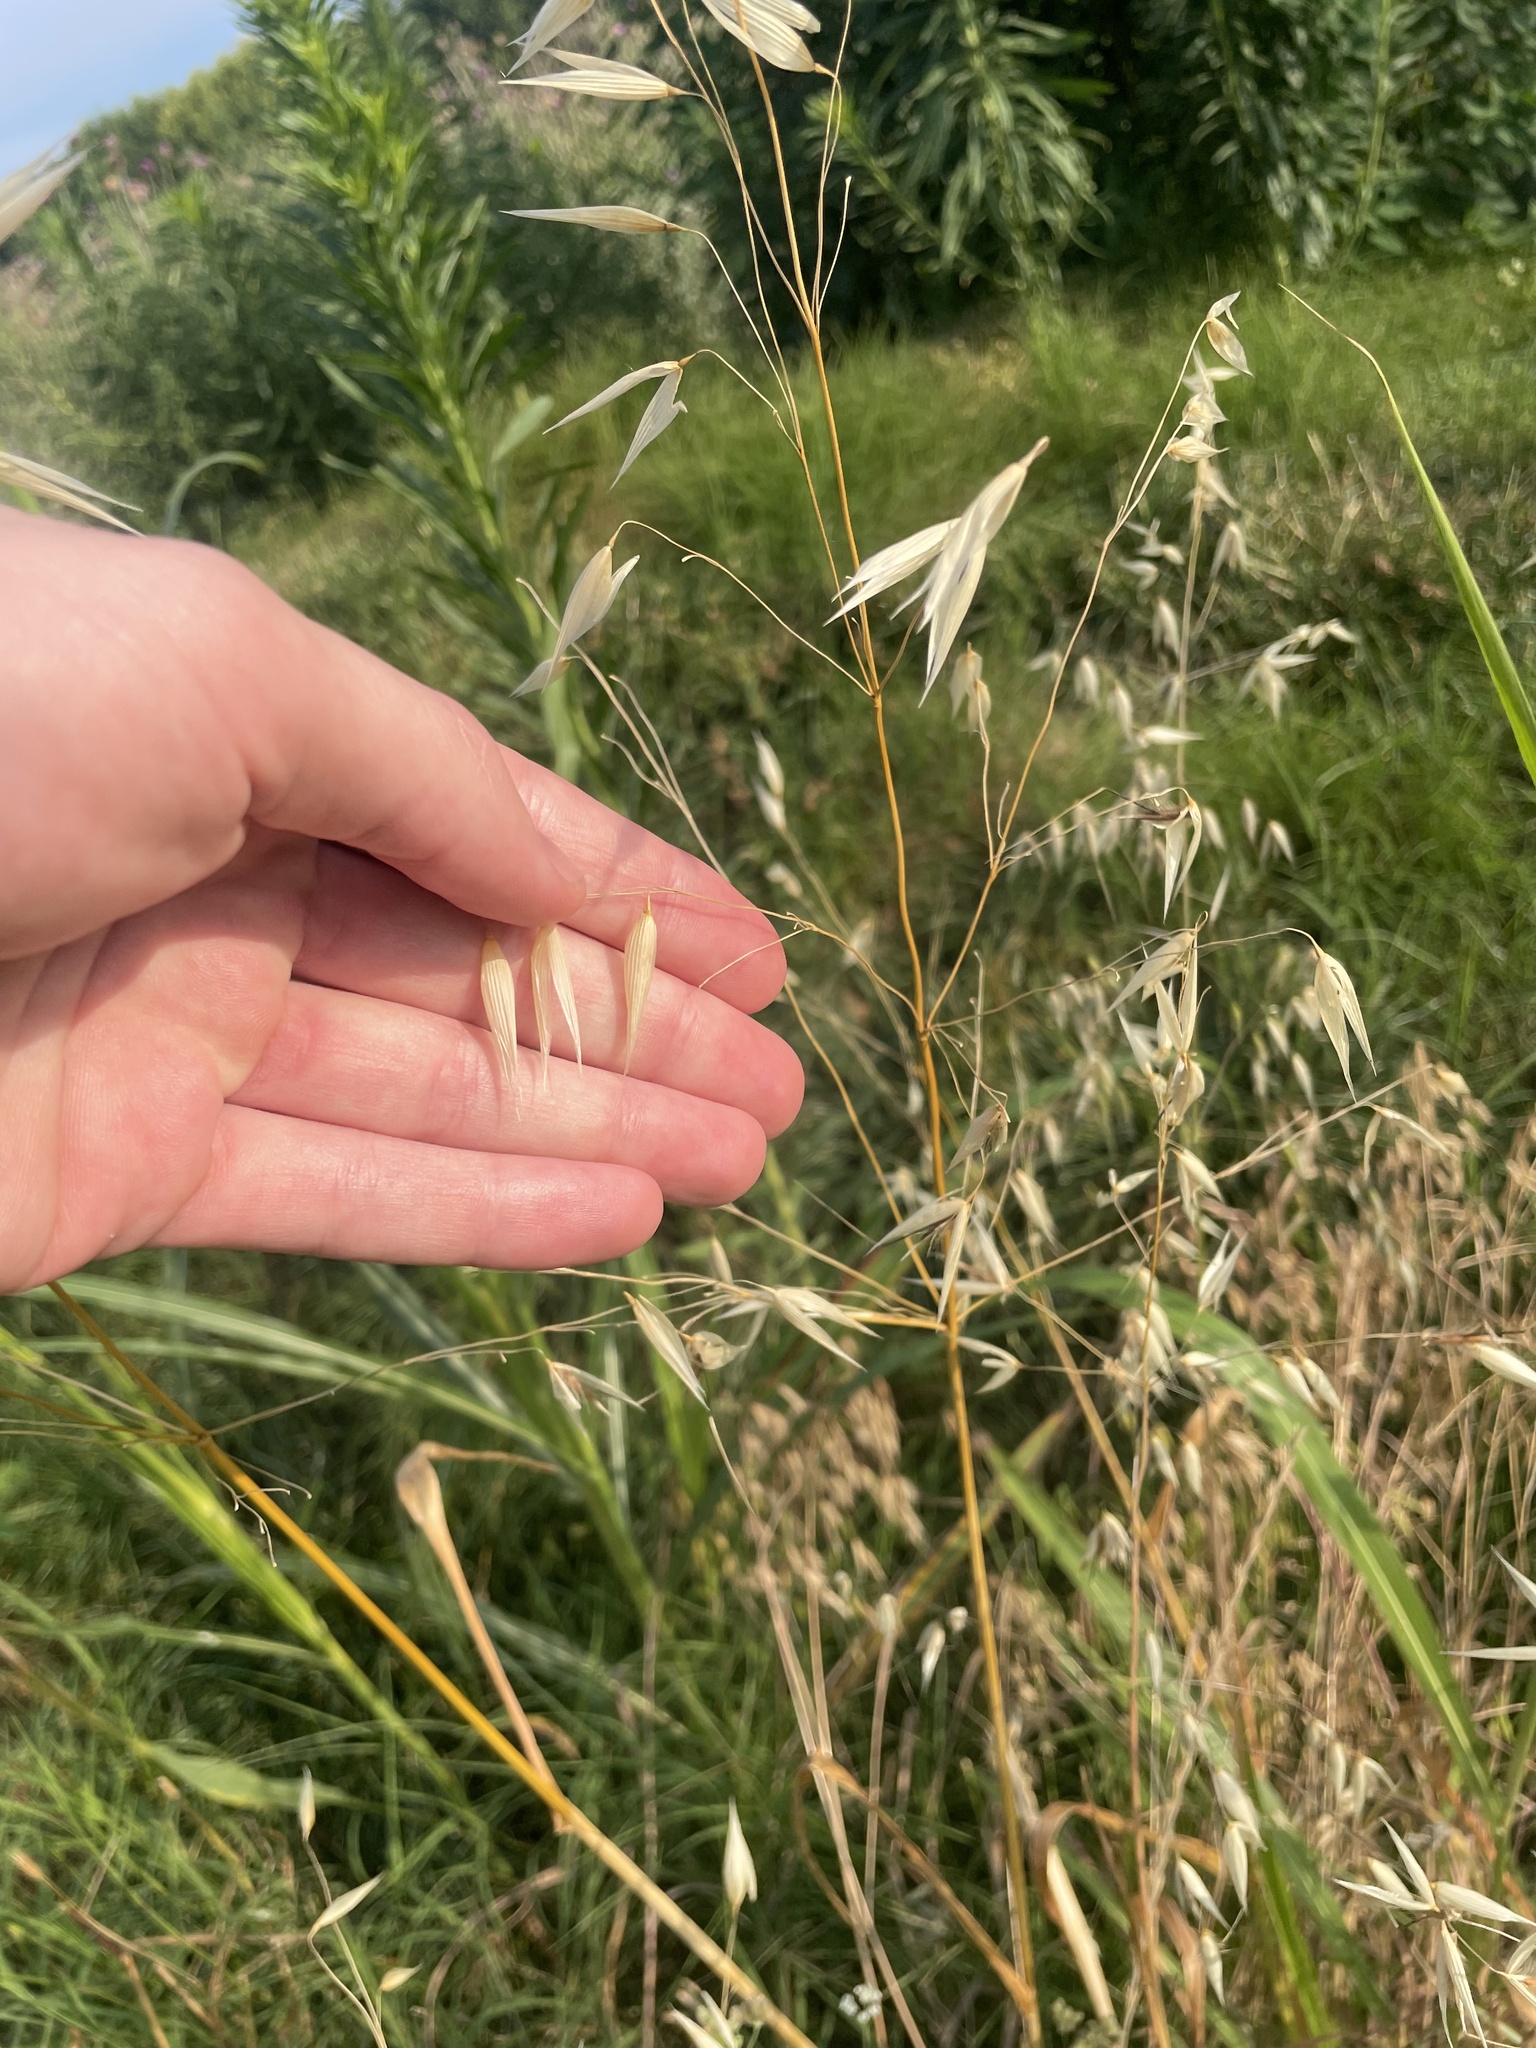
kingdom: Plantae
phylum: Tracheophyta
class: Liliopsida
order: Poales
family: Poaceae
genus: Avena
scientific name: Avena fatua
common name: Wild oat
